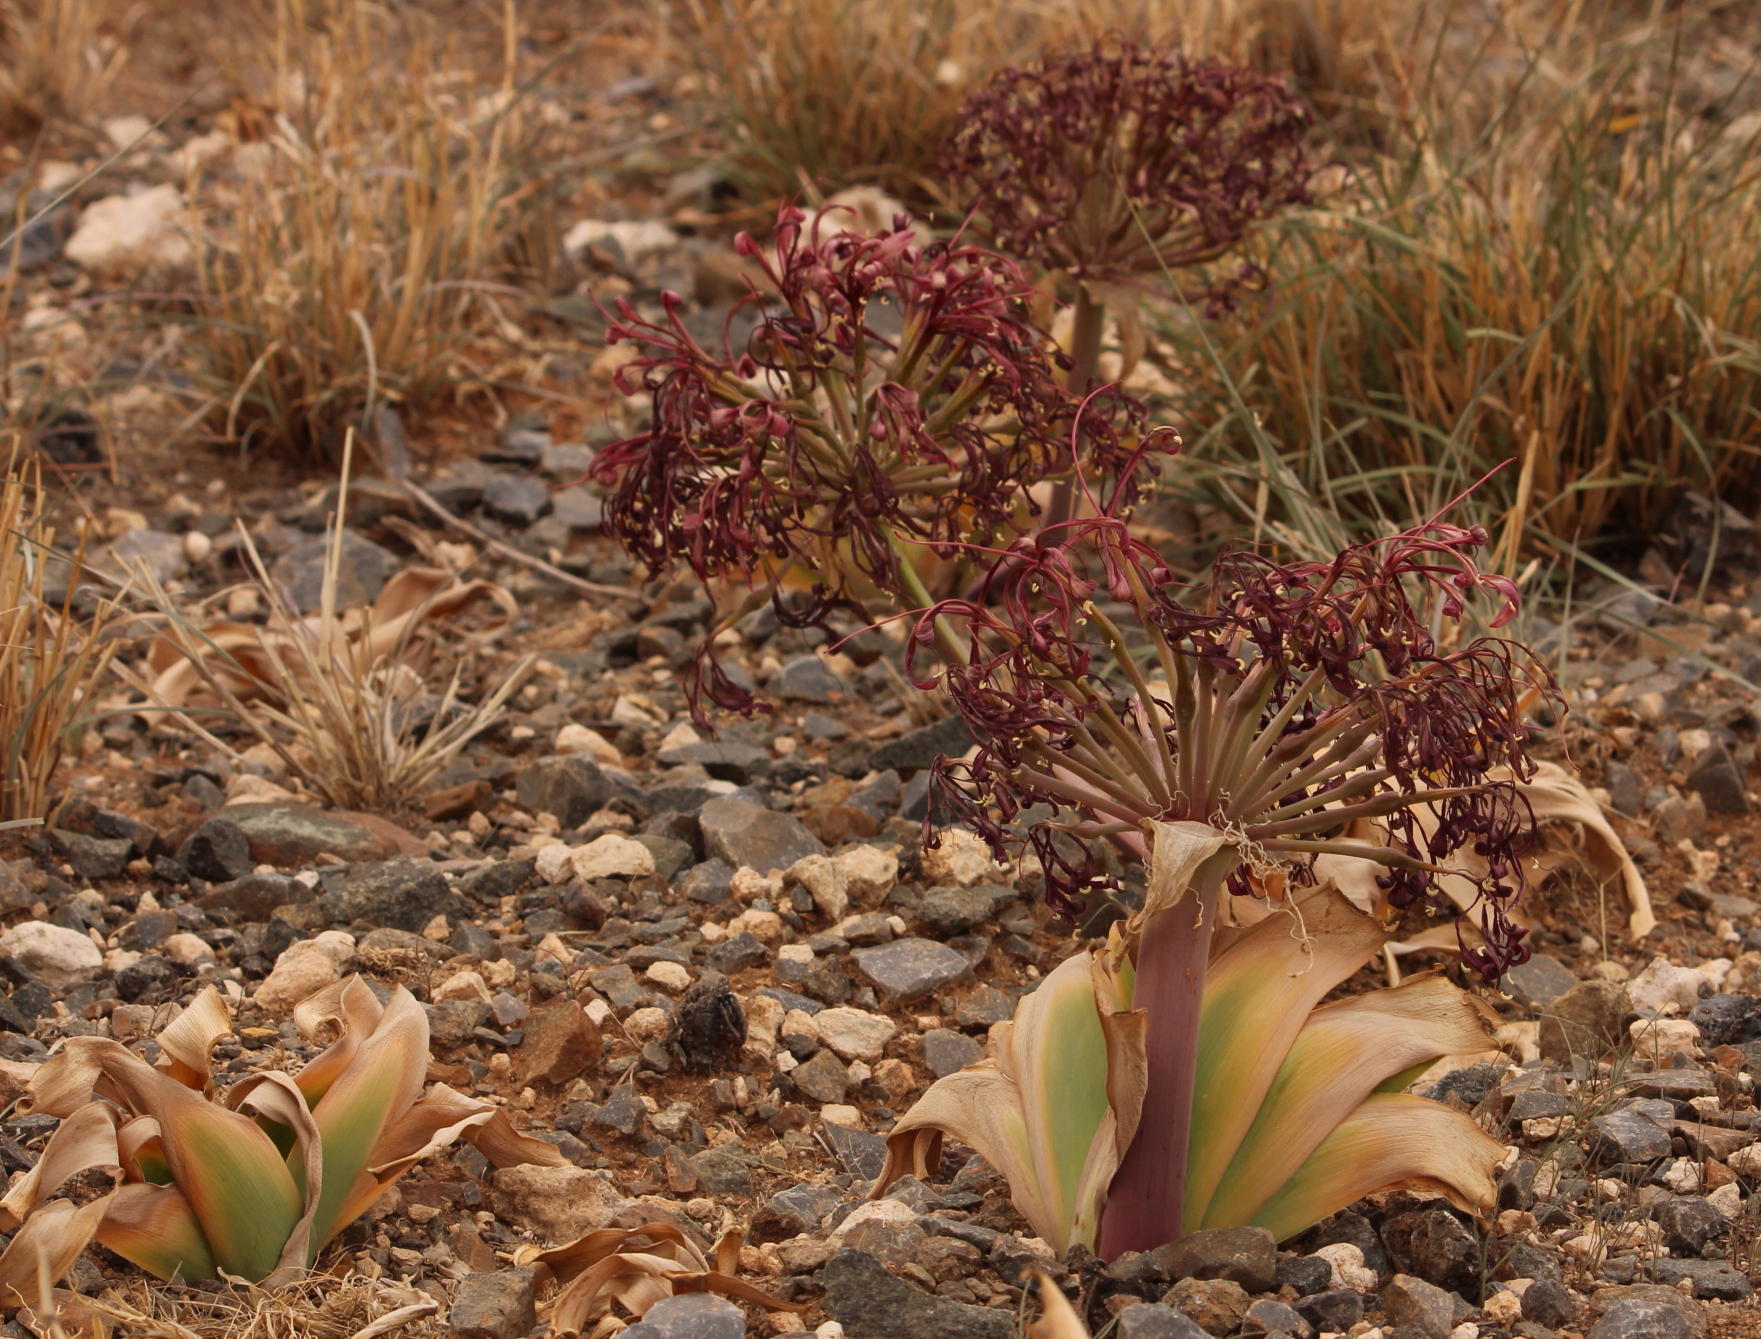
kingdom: Plantae
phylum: Tracheophyta
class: Liliopsida
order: Asparagales
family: Amaryllidaceae
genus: Ammocharis
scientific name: Ammocharis coranica
